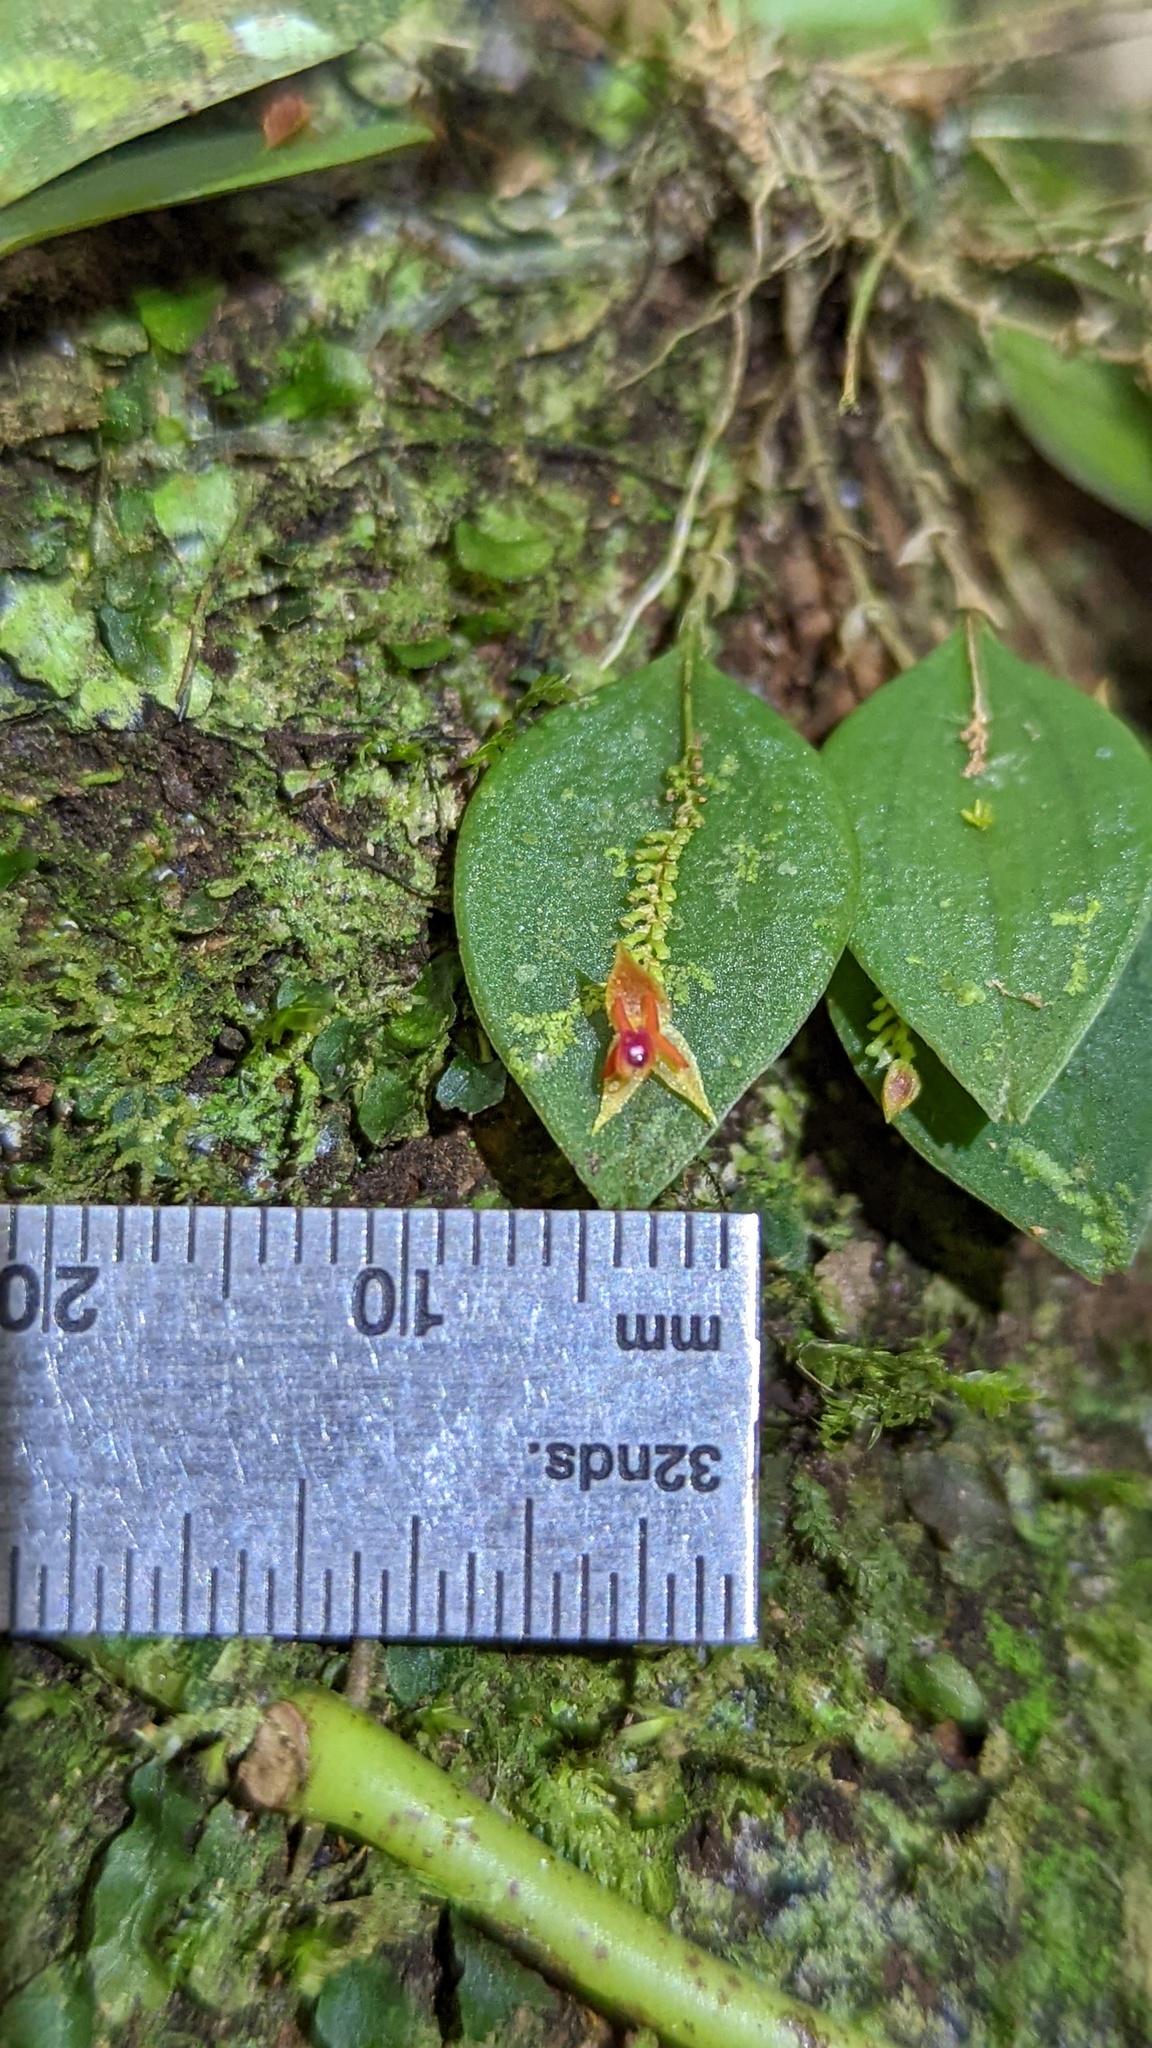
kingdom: Plantae
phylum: Tracheophyta
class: Liliopsida
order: Asparagales
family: Orchidaceae
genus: Lepanthes
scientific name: Lepanthes monteverdensis
